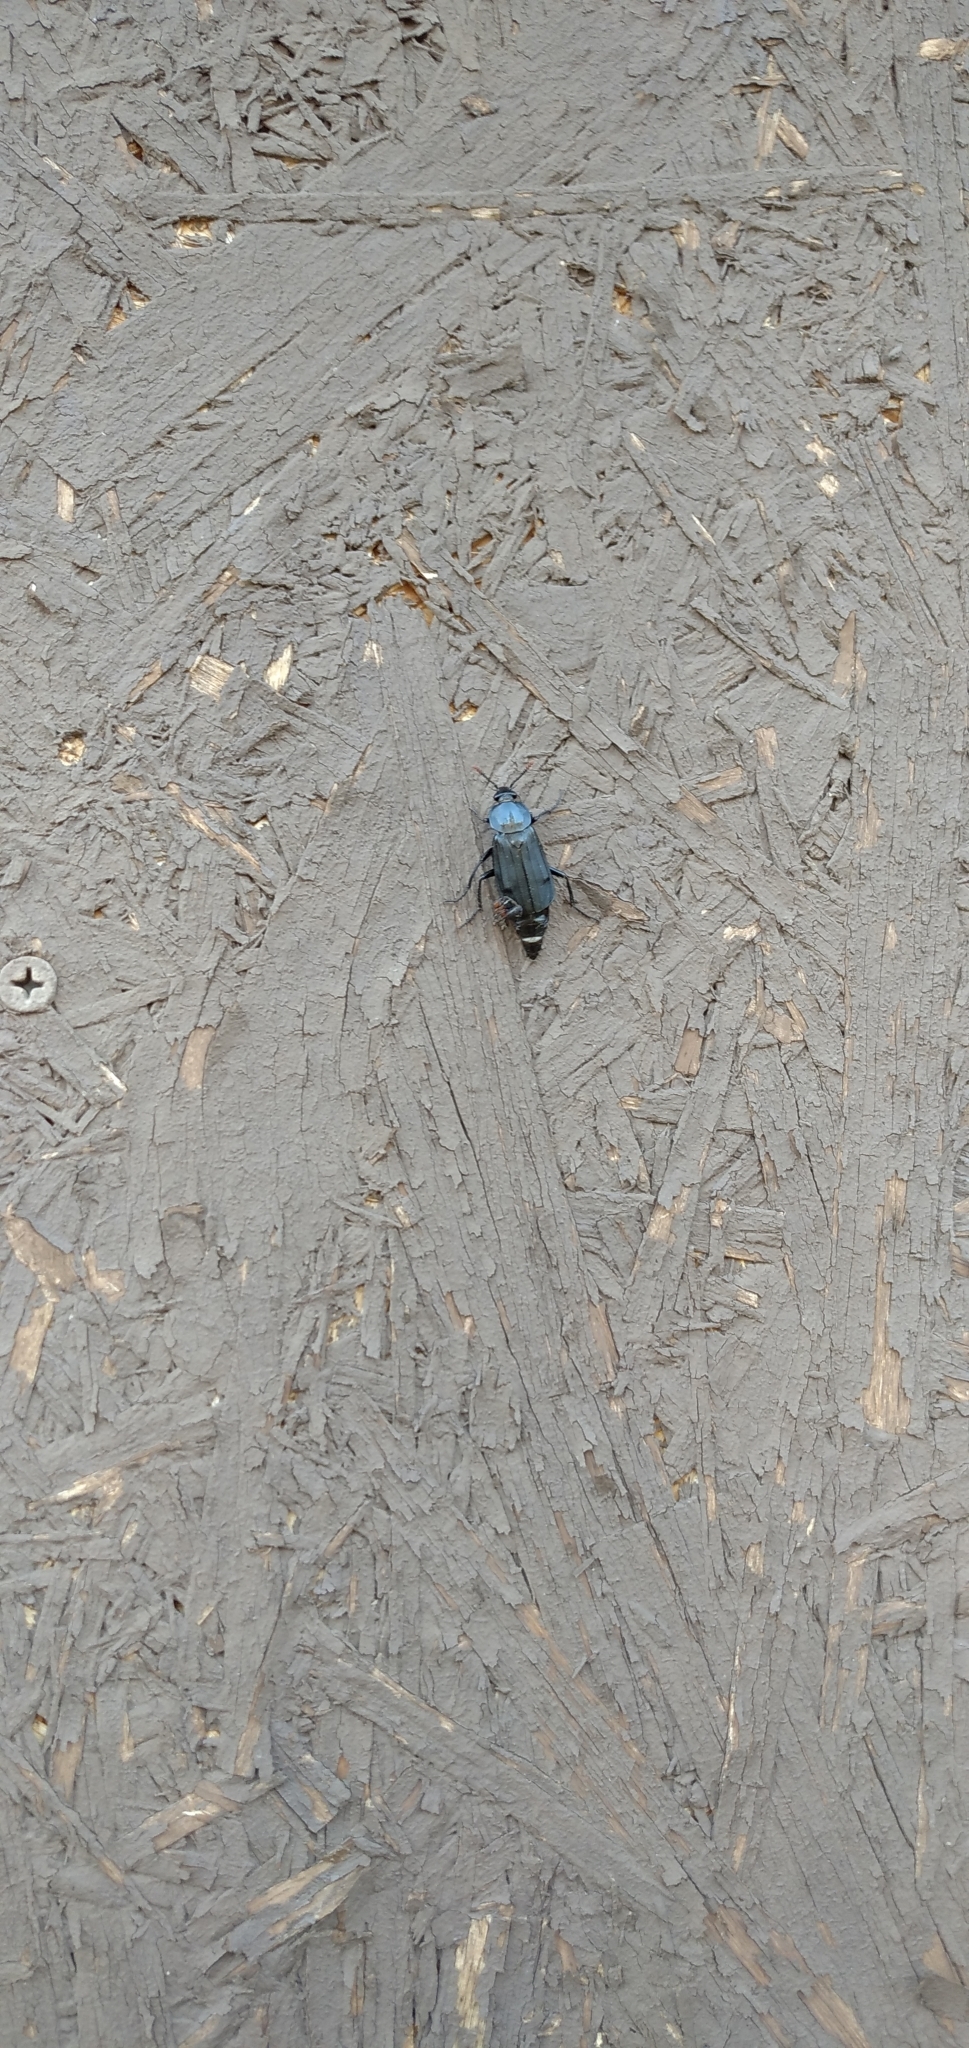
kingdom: Animalia
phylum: Arthropoda
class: Insecta
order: Coleoptera
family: Staphylinidae
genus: Necrodes
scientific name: Necrodes littoralis
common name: Shore sexton beetle
